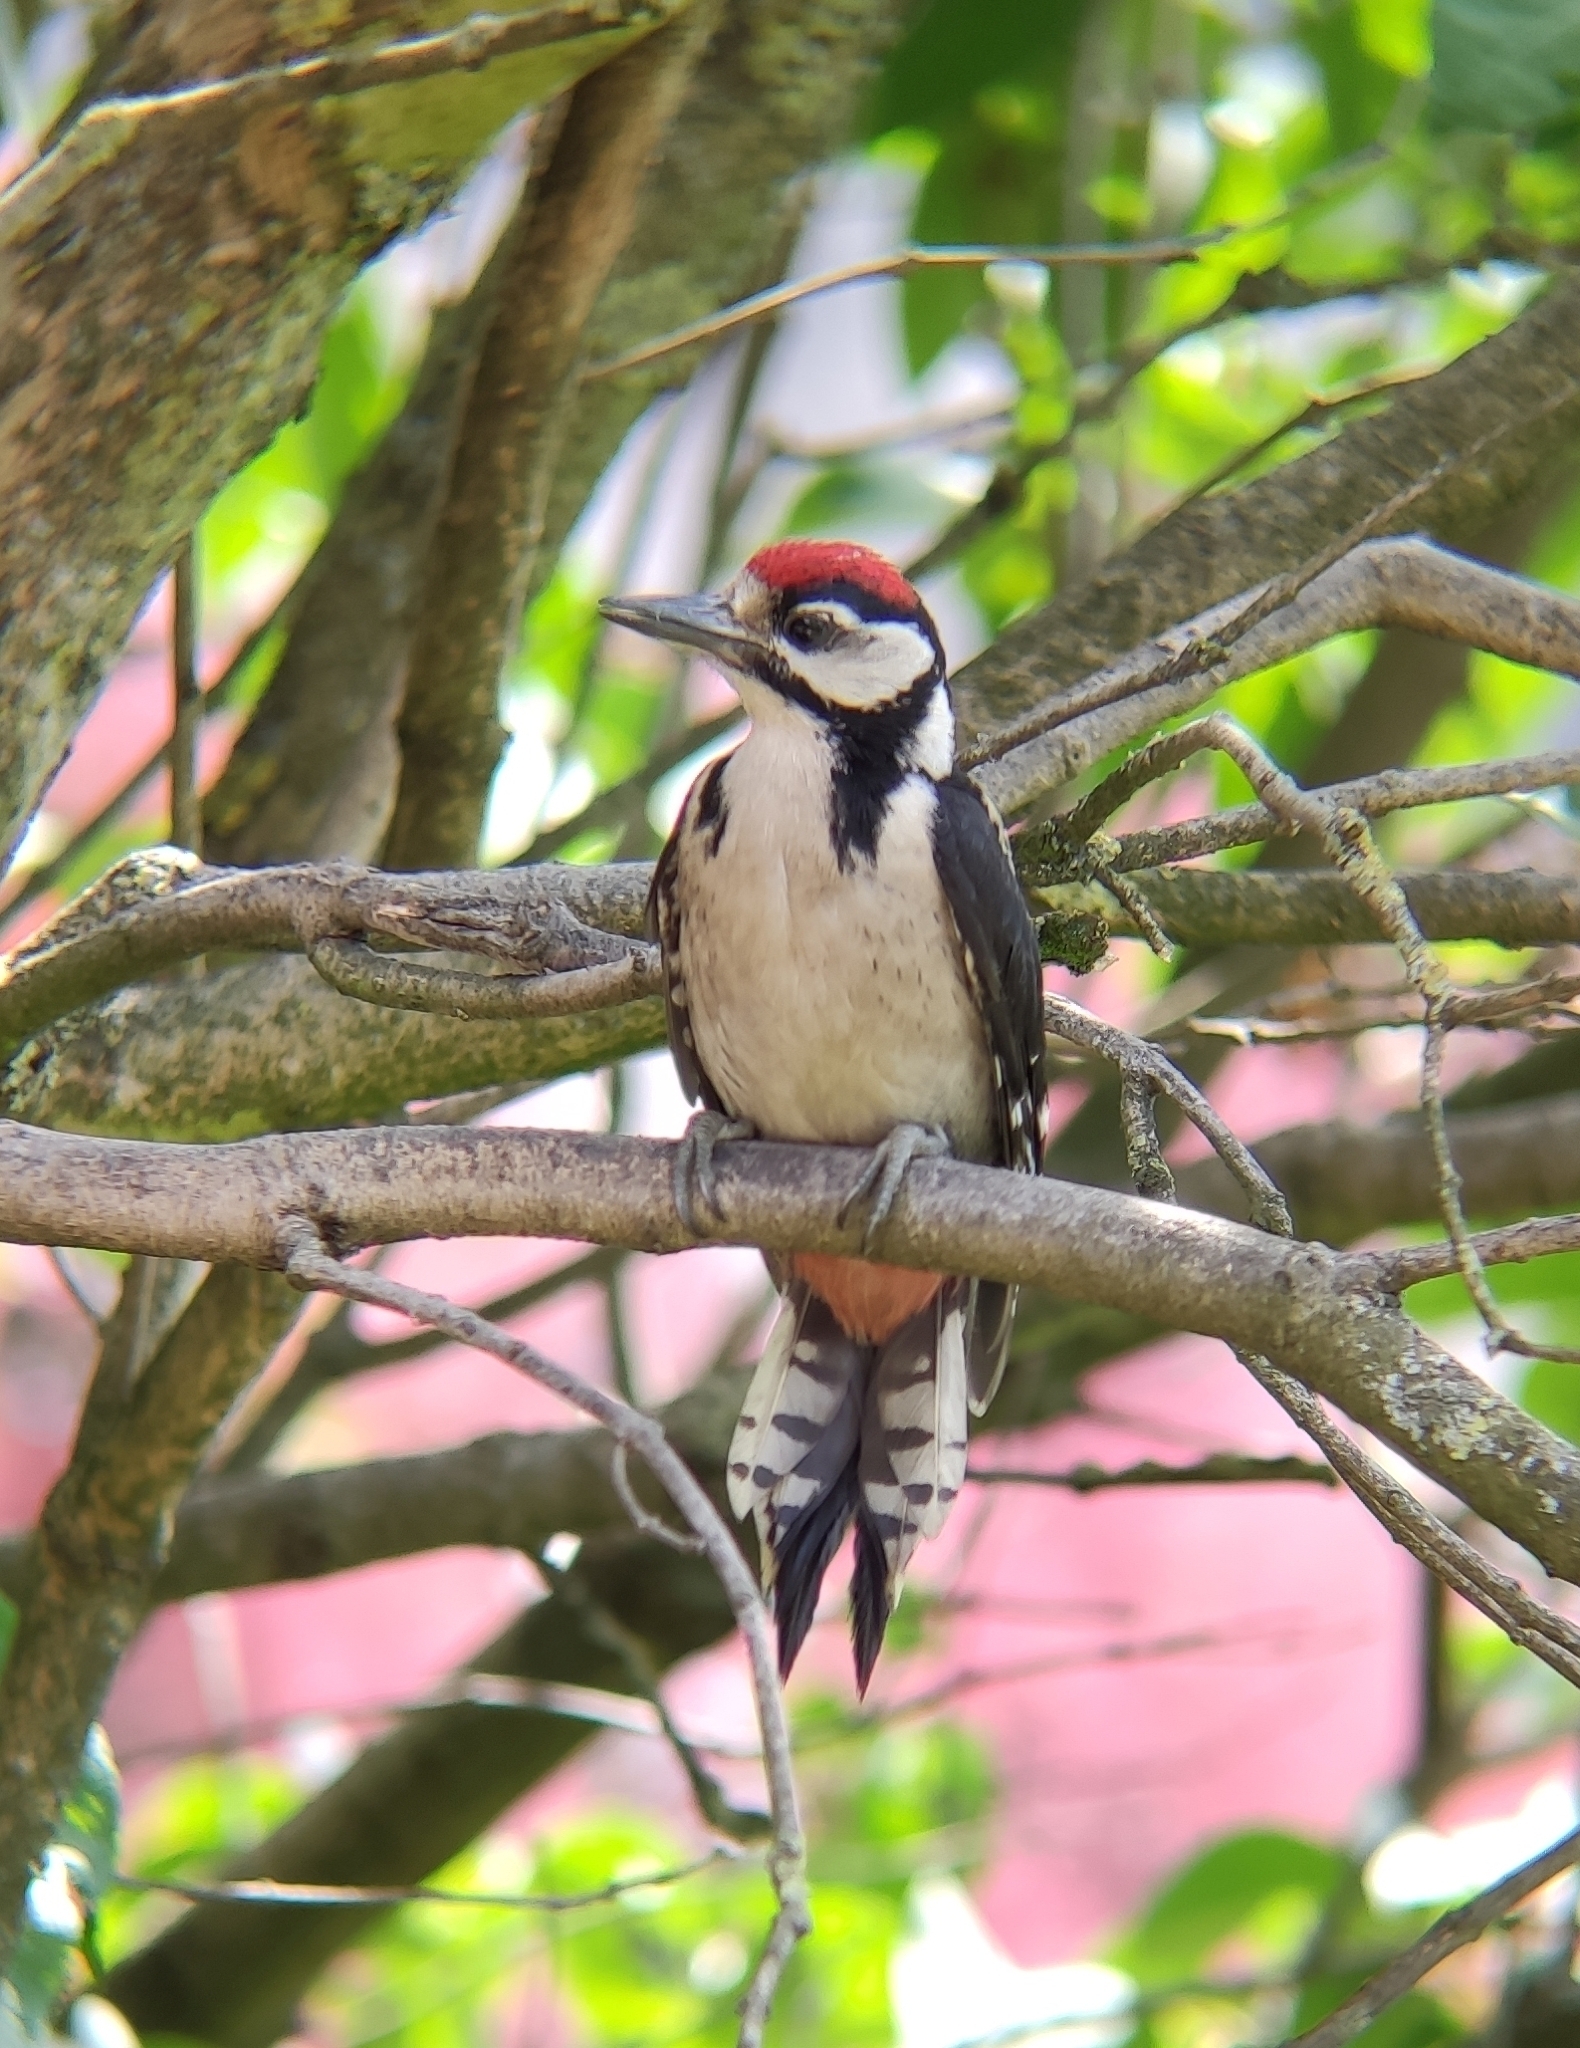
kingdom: Animalia
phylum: Chordata
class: Aves
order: Piciformes
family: Picidae
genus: Dendrocopos
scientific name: Dendrocopos major
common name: Great spotted woodpecker
